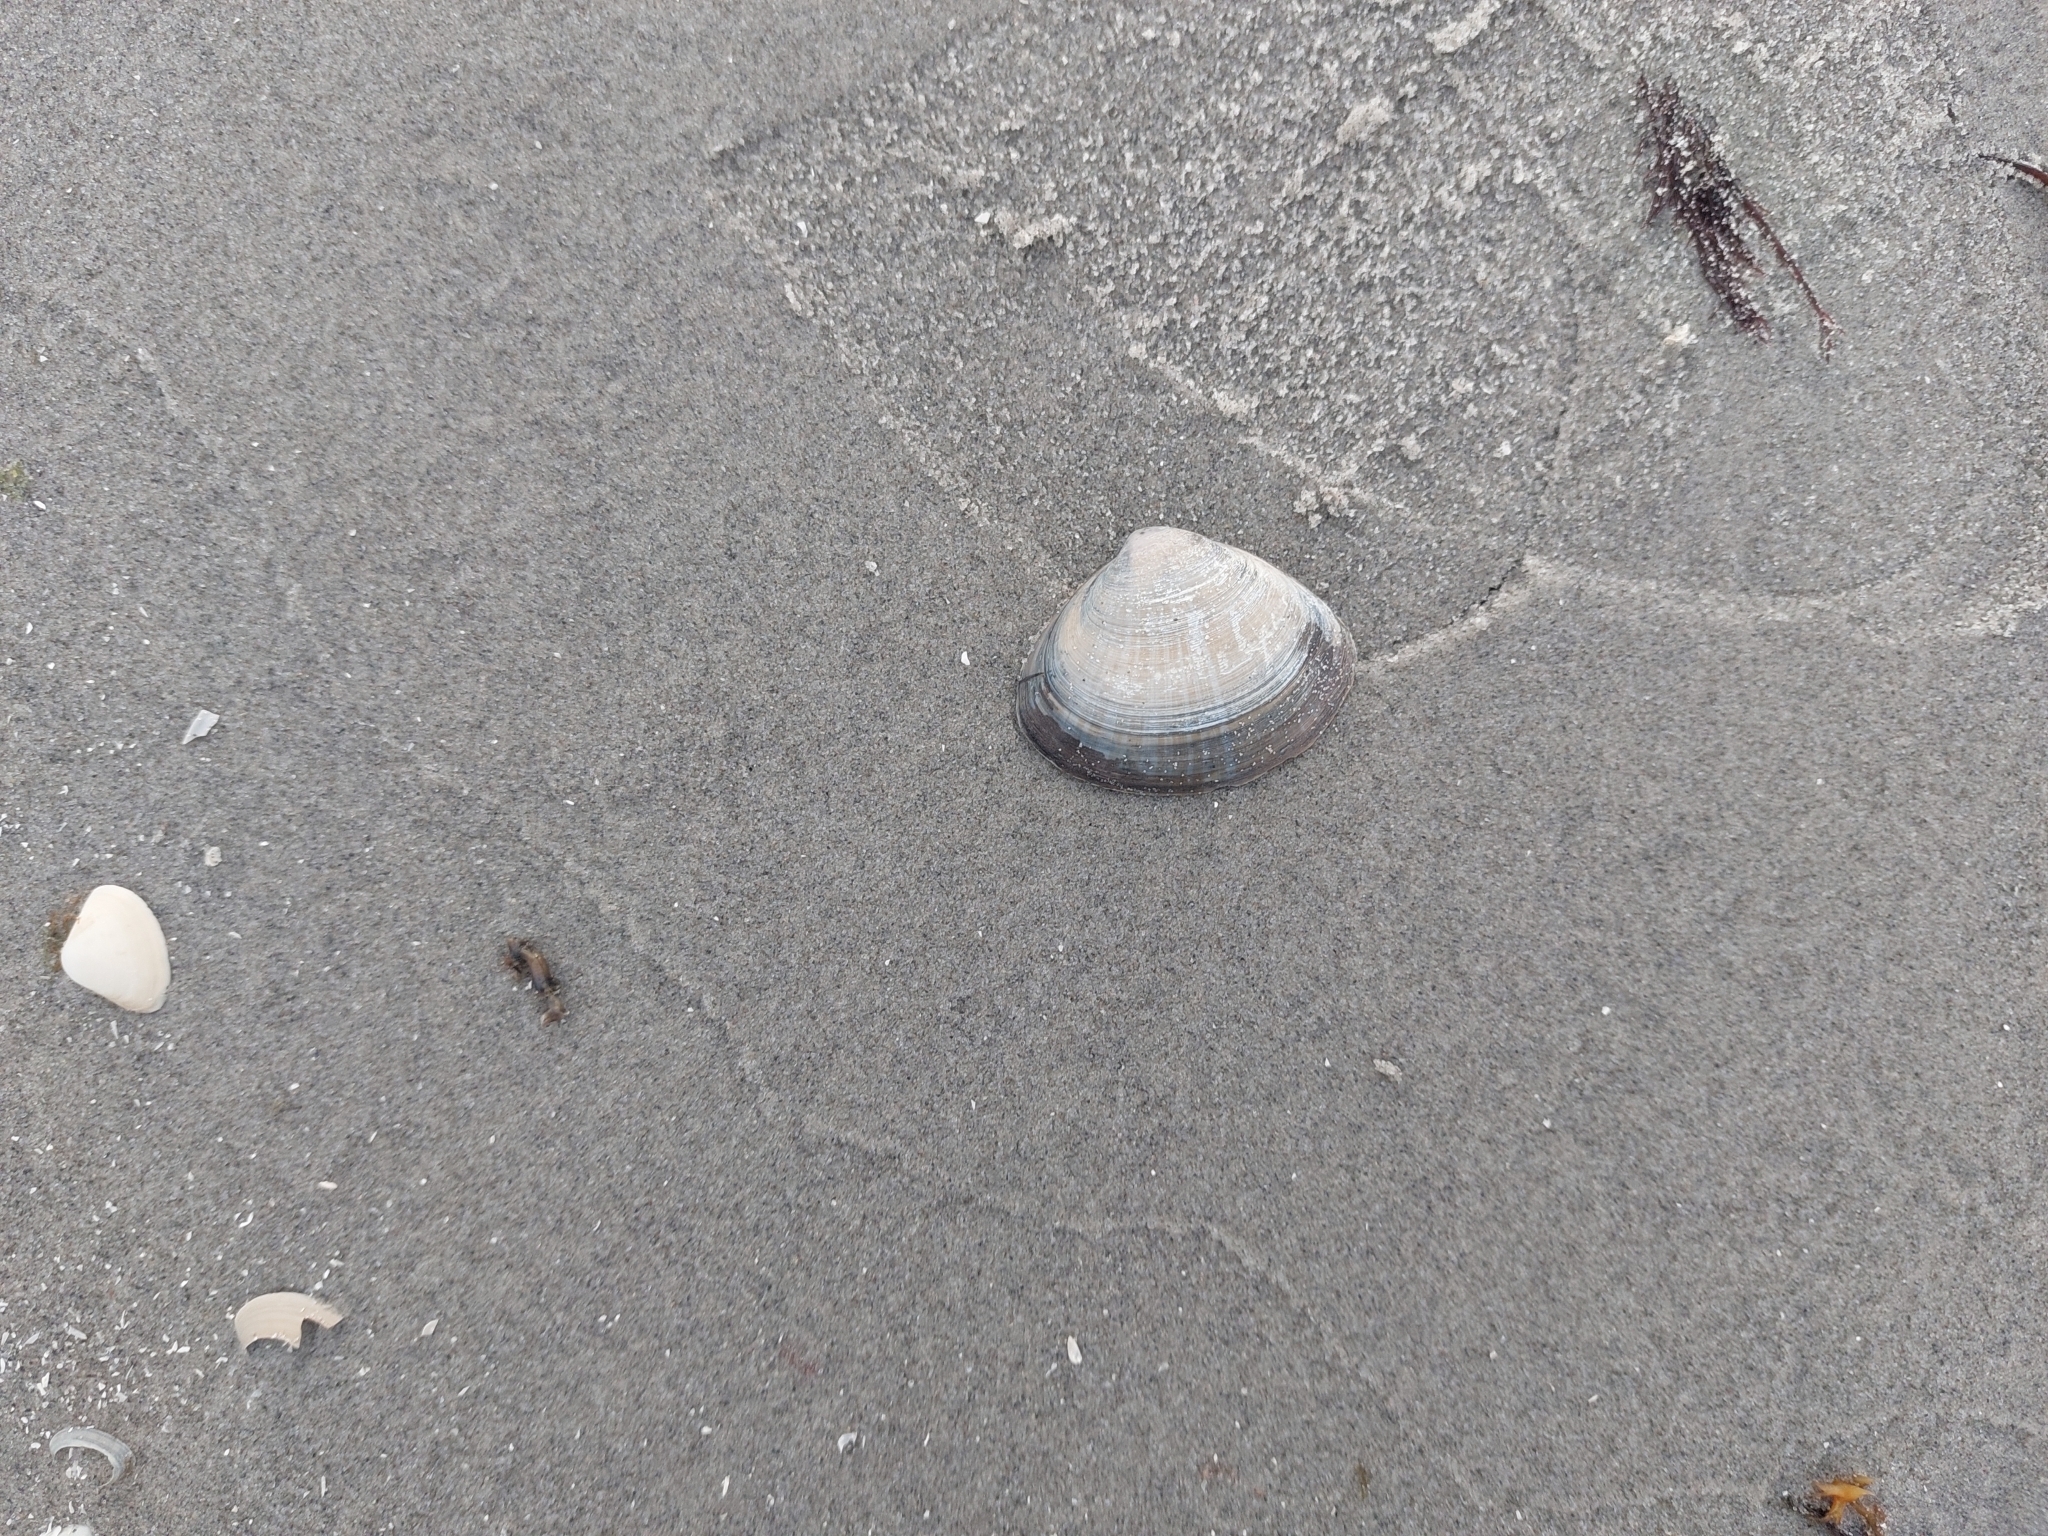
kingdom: Animalia
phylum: Mollusca
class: Bivalvia
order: Venerida
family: Mactridae
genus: Mactra
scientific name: Mactra stultorum
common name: Rayed trough shell
